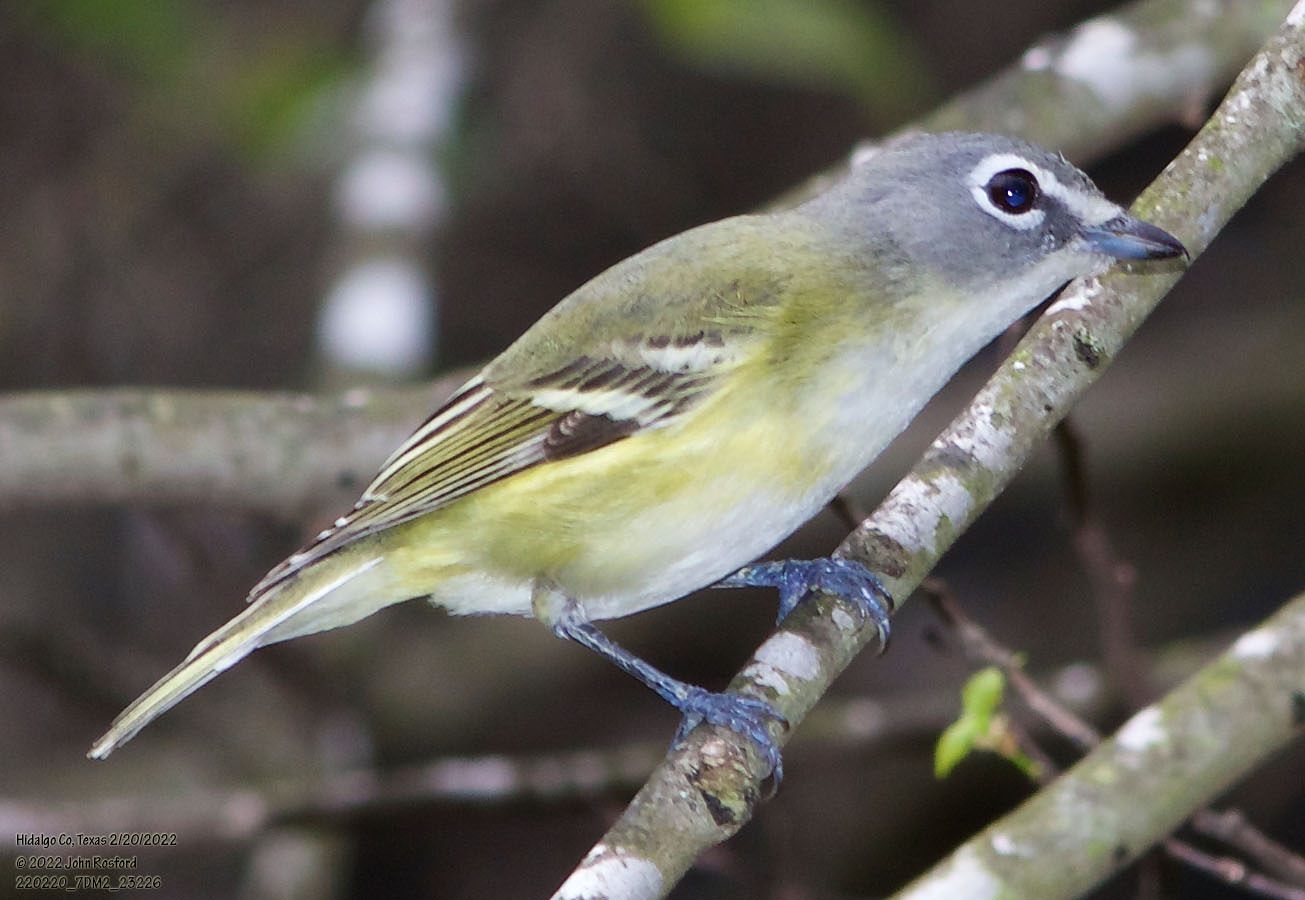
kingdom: Animalia
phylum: Chordata
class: Aves
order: Passeriformes
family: Vireonidae
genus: Vireo
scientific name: Vireo solitarius
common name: Blue-headed vireo
